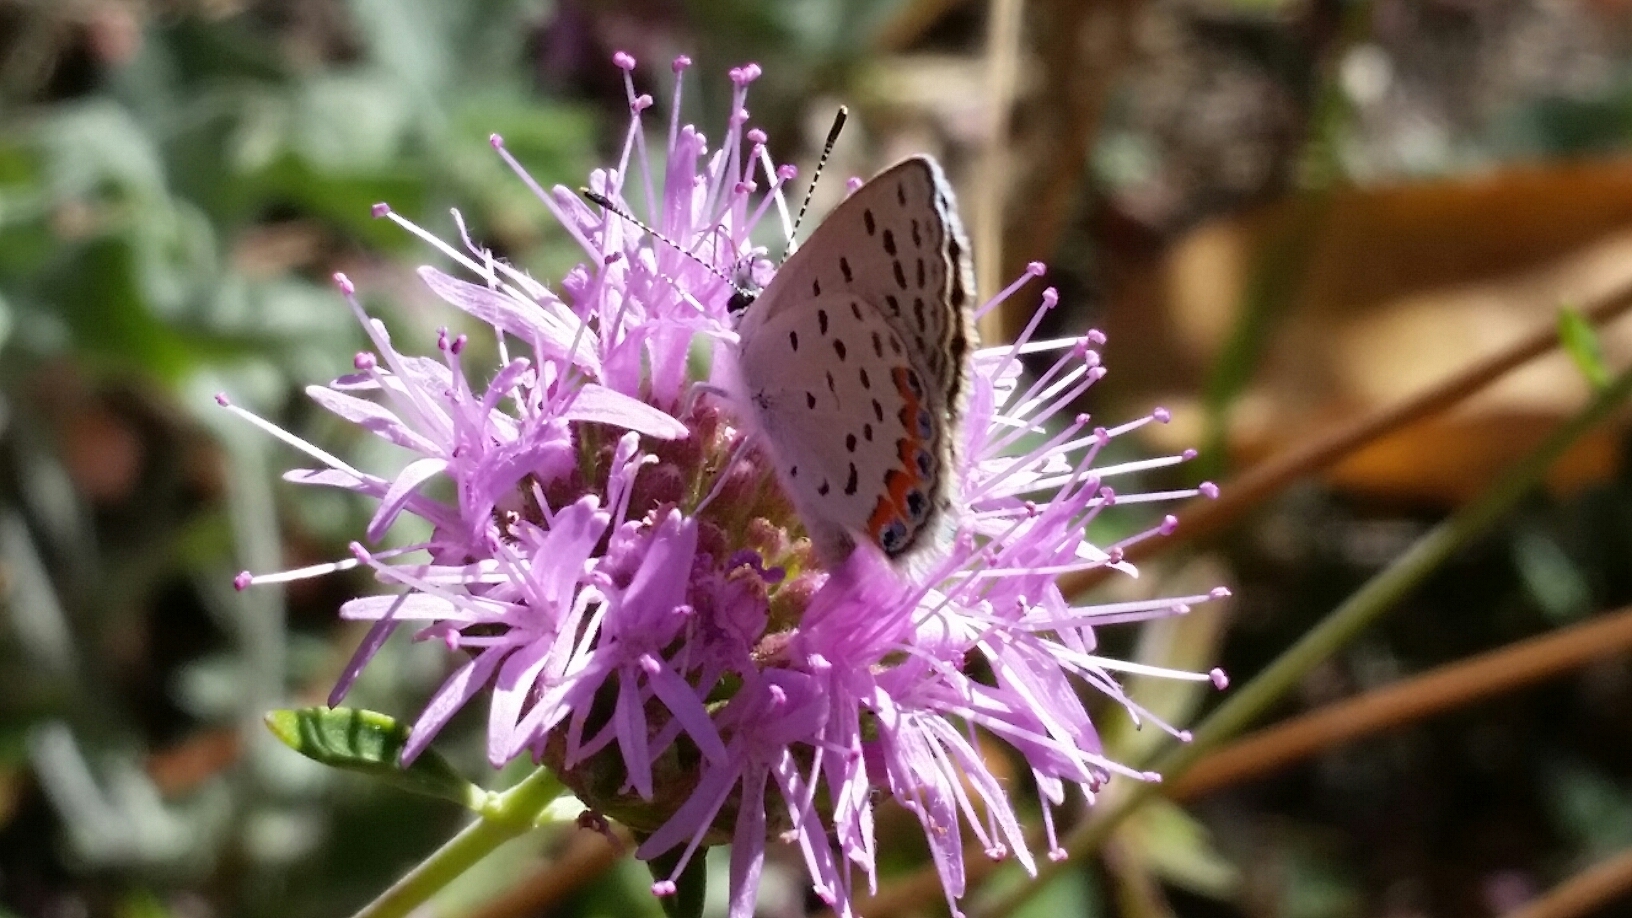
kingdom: Animalia
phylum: Arthropoda
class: Insecta
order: Lepidoptera
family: Lycaenidae
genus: Icaricia
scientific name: Icaricia acmon
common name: Acmon blue
